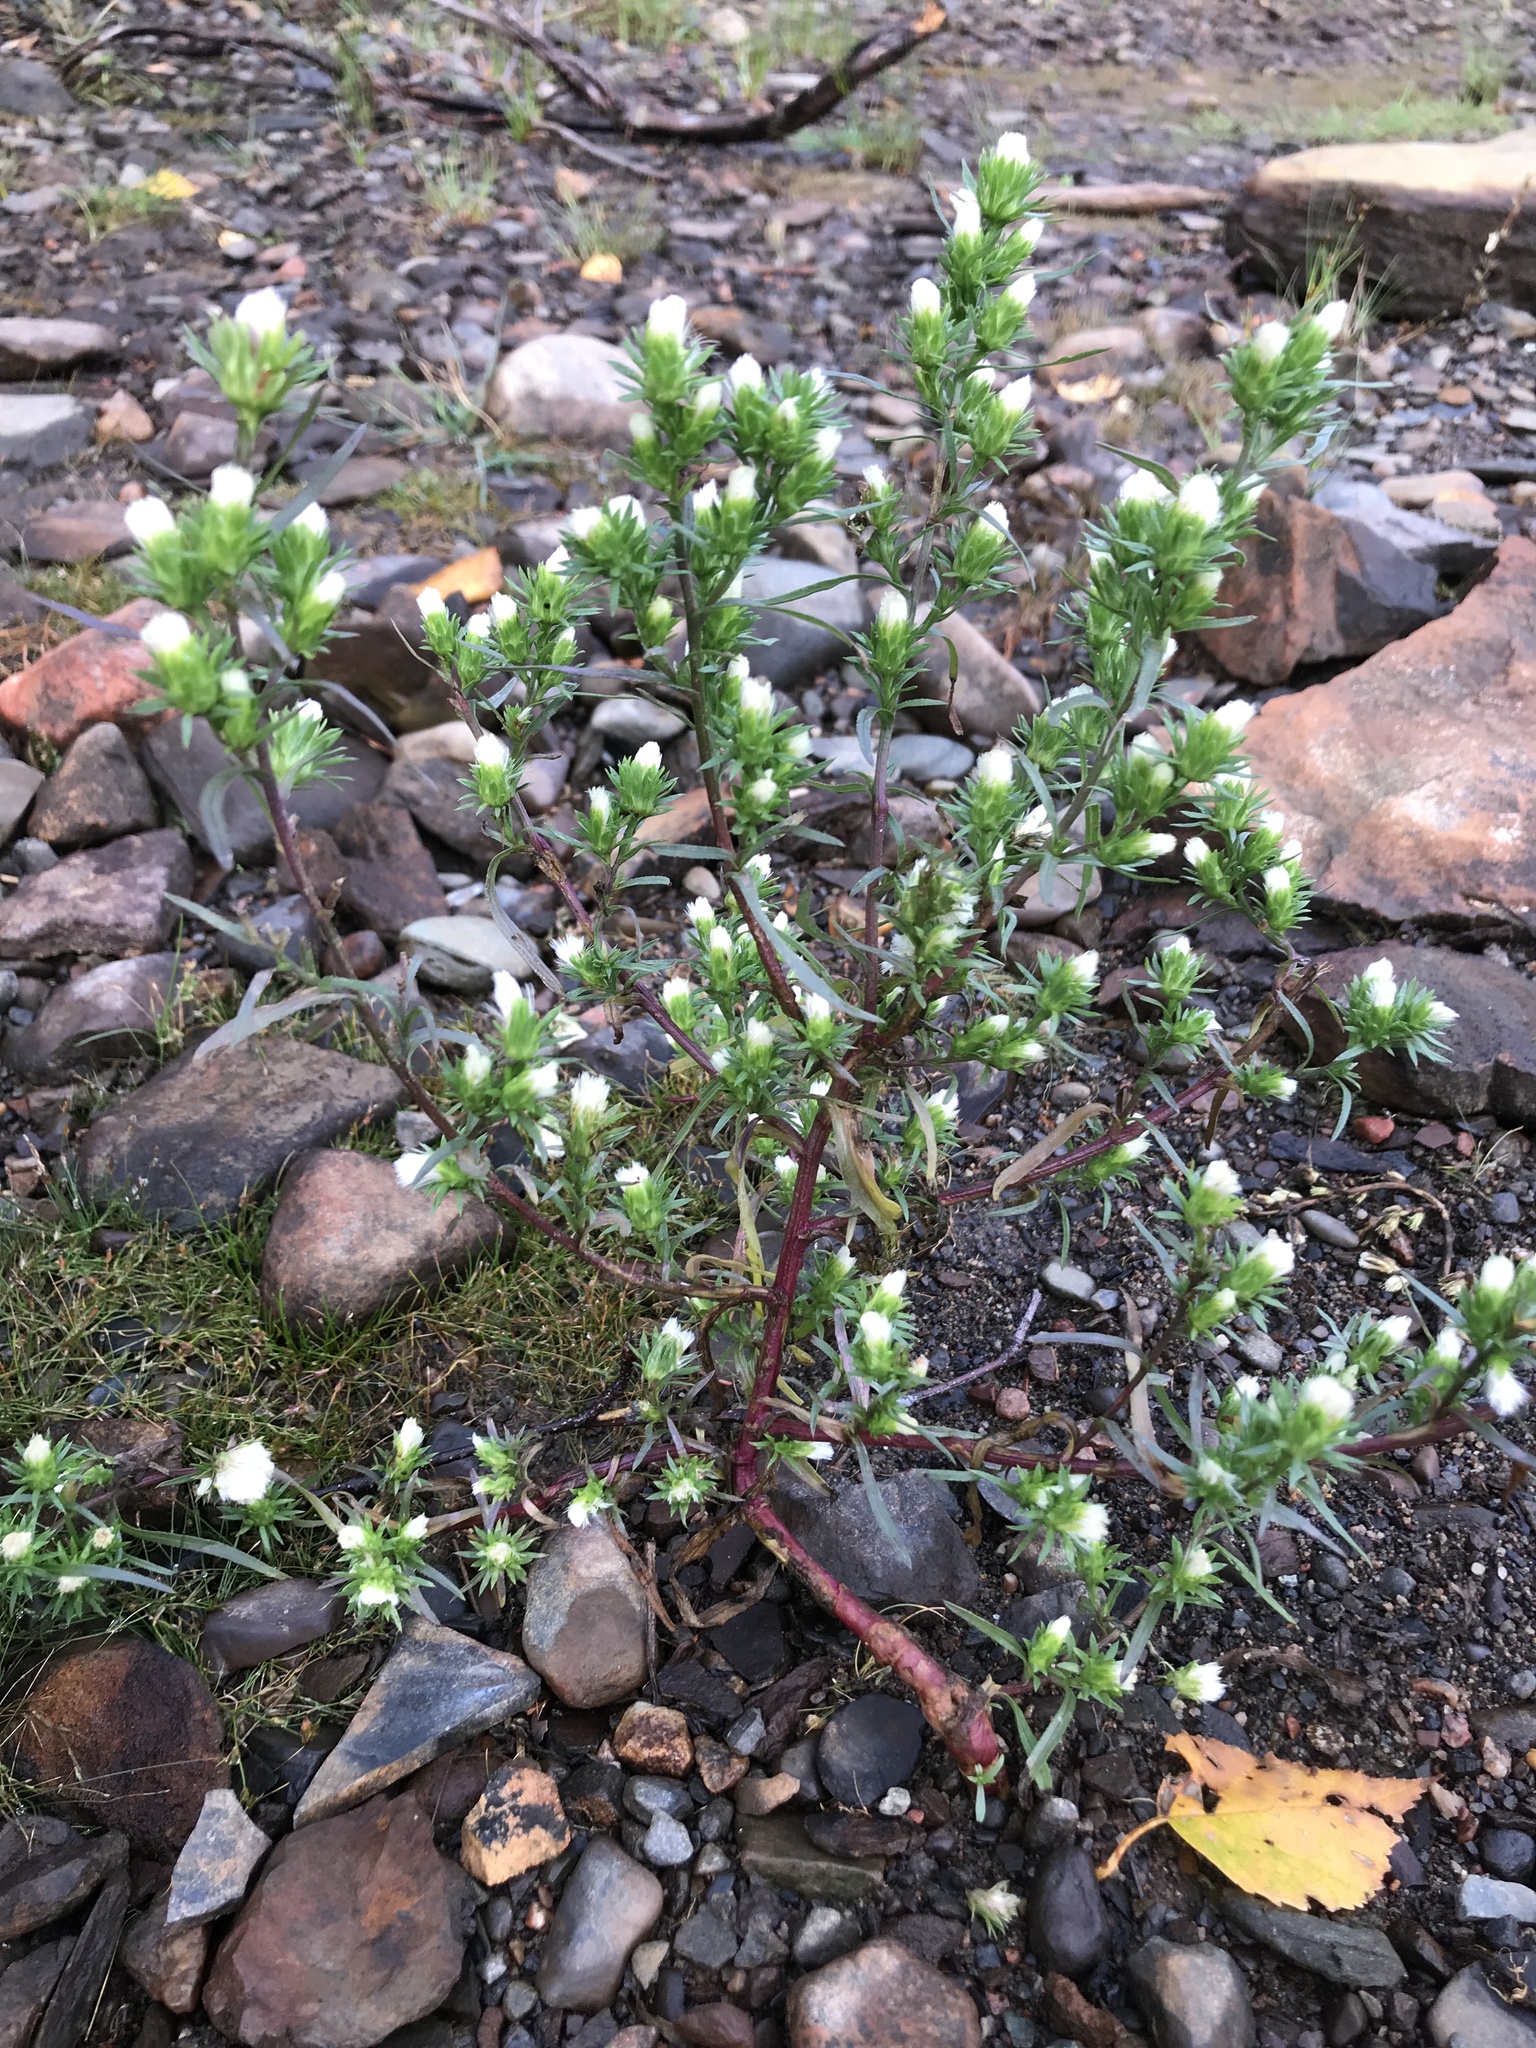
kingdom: Plantae
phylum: Tracheophyta
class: Magnoliopsida
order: Asterales
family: Asteraceae
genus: Symphyotrichum
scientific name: Symphyotrichum ciliatum
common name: Rayless annual aster
